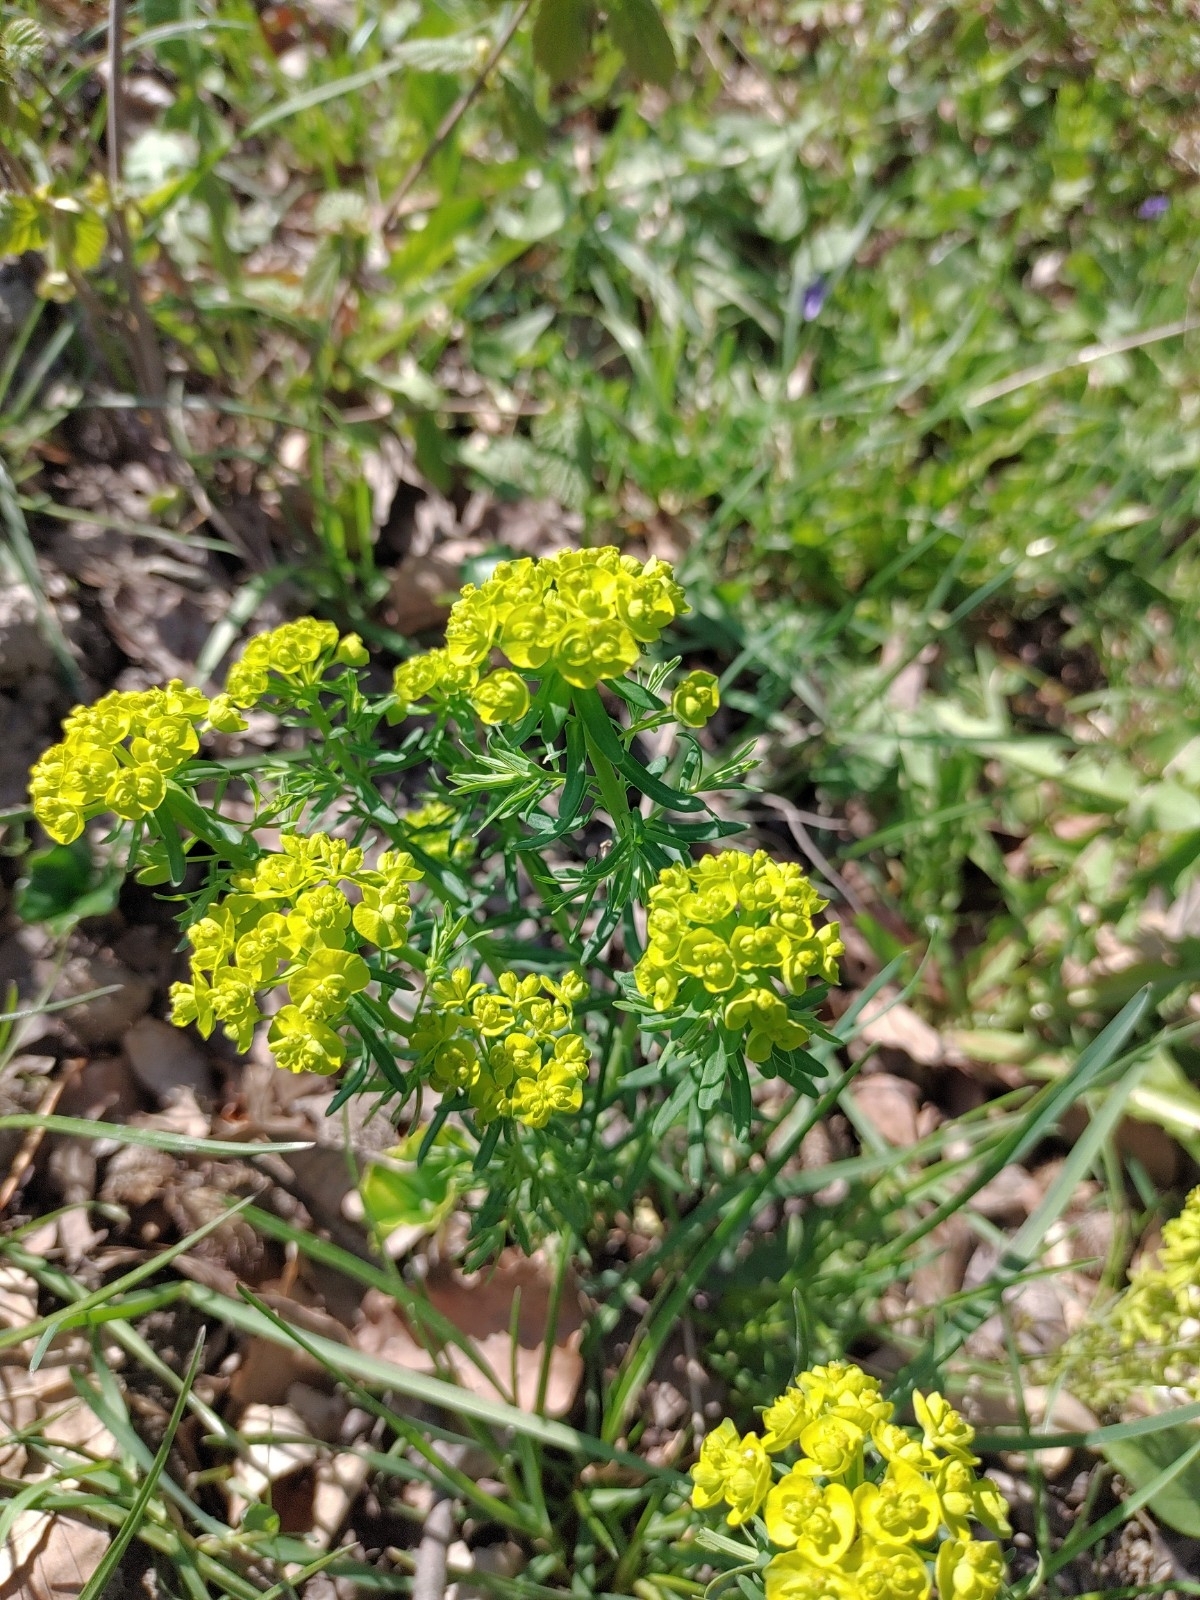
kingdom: Plantae
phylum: Tracheophyta
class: Magnoliopsida
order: Malpighiales
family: Euphorbiaceae
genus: Euphorbia
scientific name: Euphorbia cyparissias
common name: Cypress spurge
